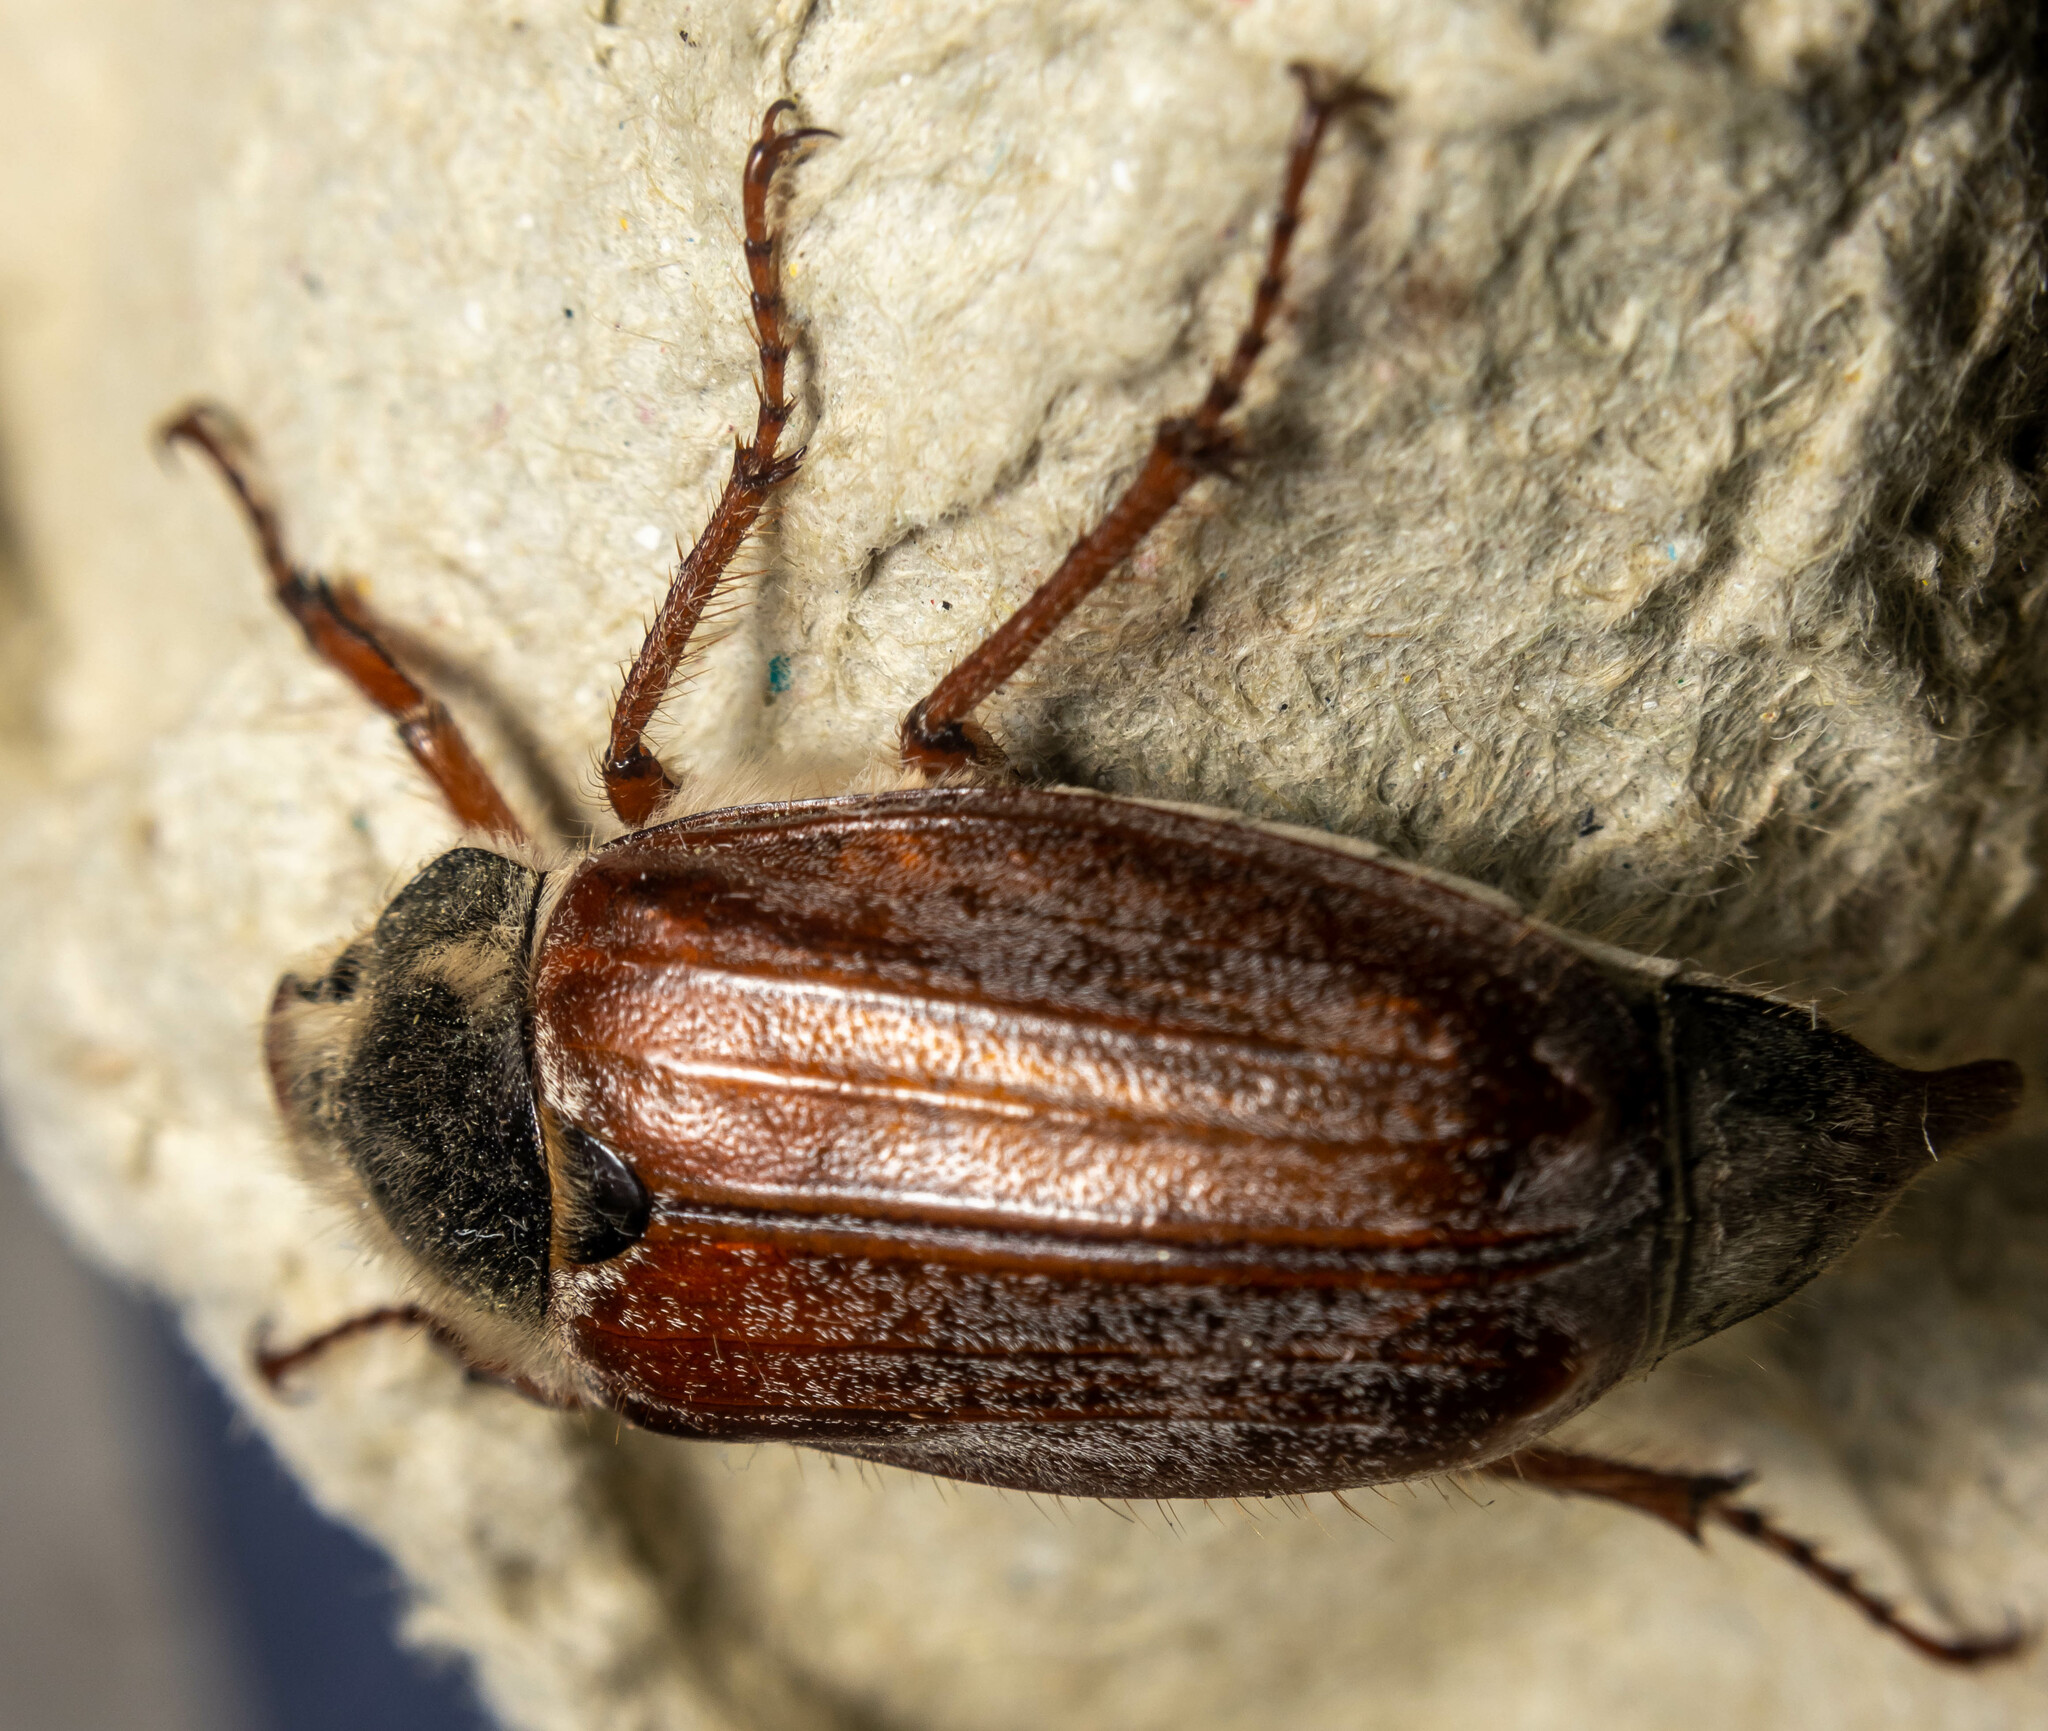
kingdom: Animalia
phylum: Arthropoda
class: Insecta
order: Coleoptera
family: Scarabaeidae
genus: Melolontha
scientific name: Melolontha melolontha
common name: Cockchafer maybeetle
